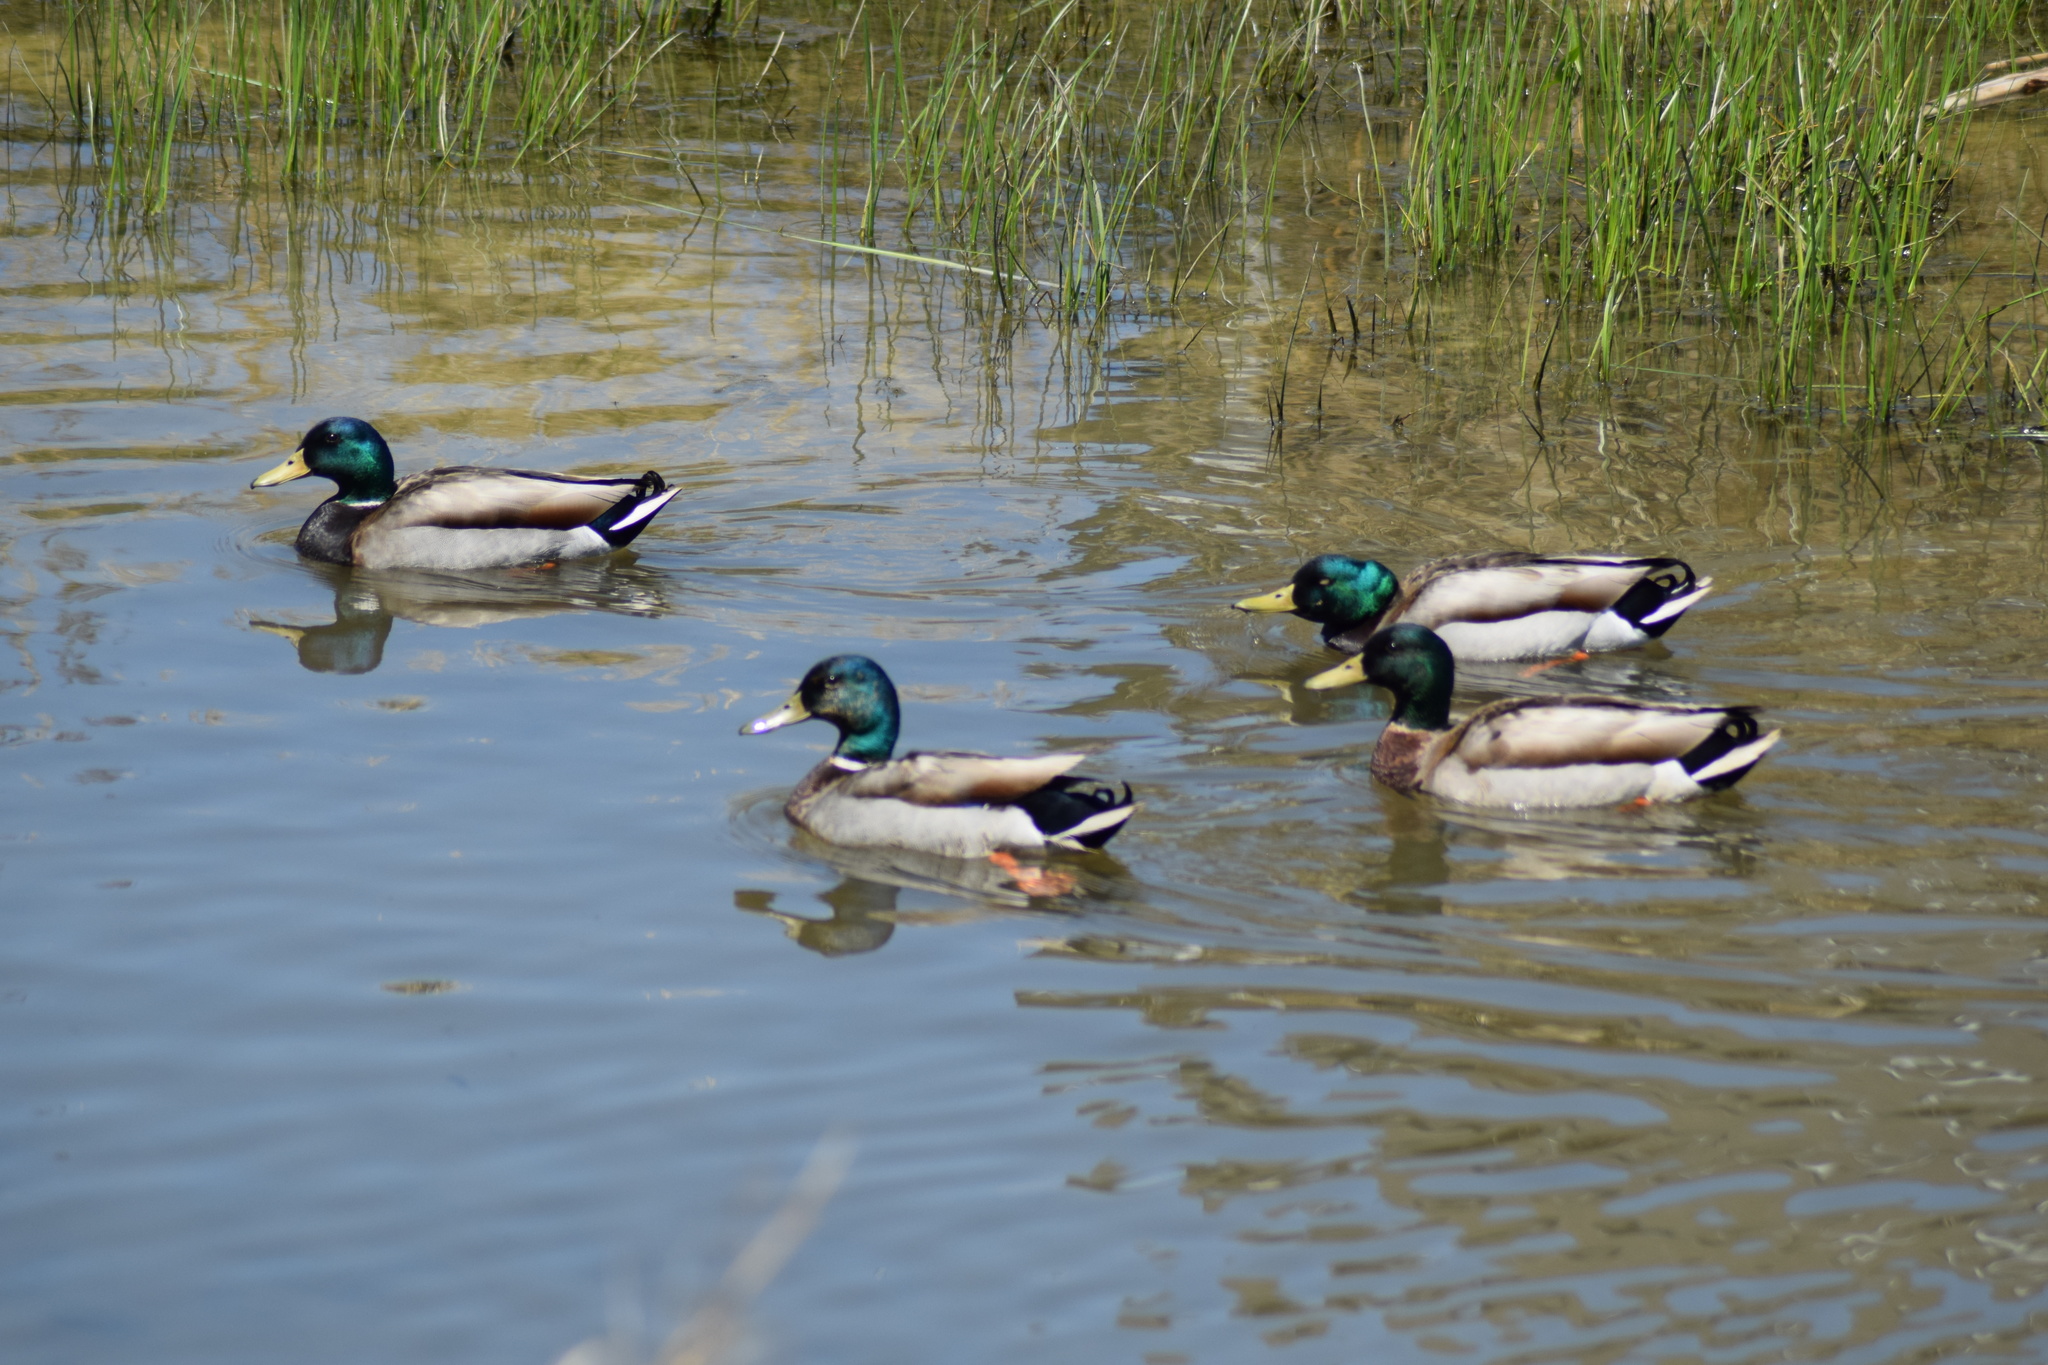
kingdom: Animalia
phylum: Chordata
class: Aves
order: Anseriformes
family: Anatidae
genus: Anas
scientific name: Anas platyrhynchos
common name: Mallard
